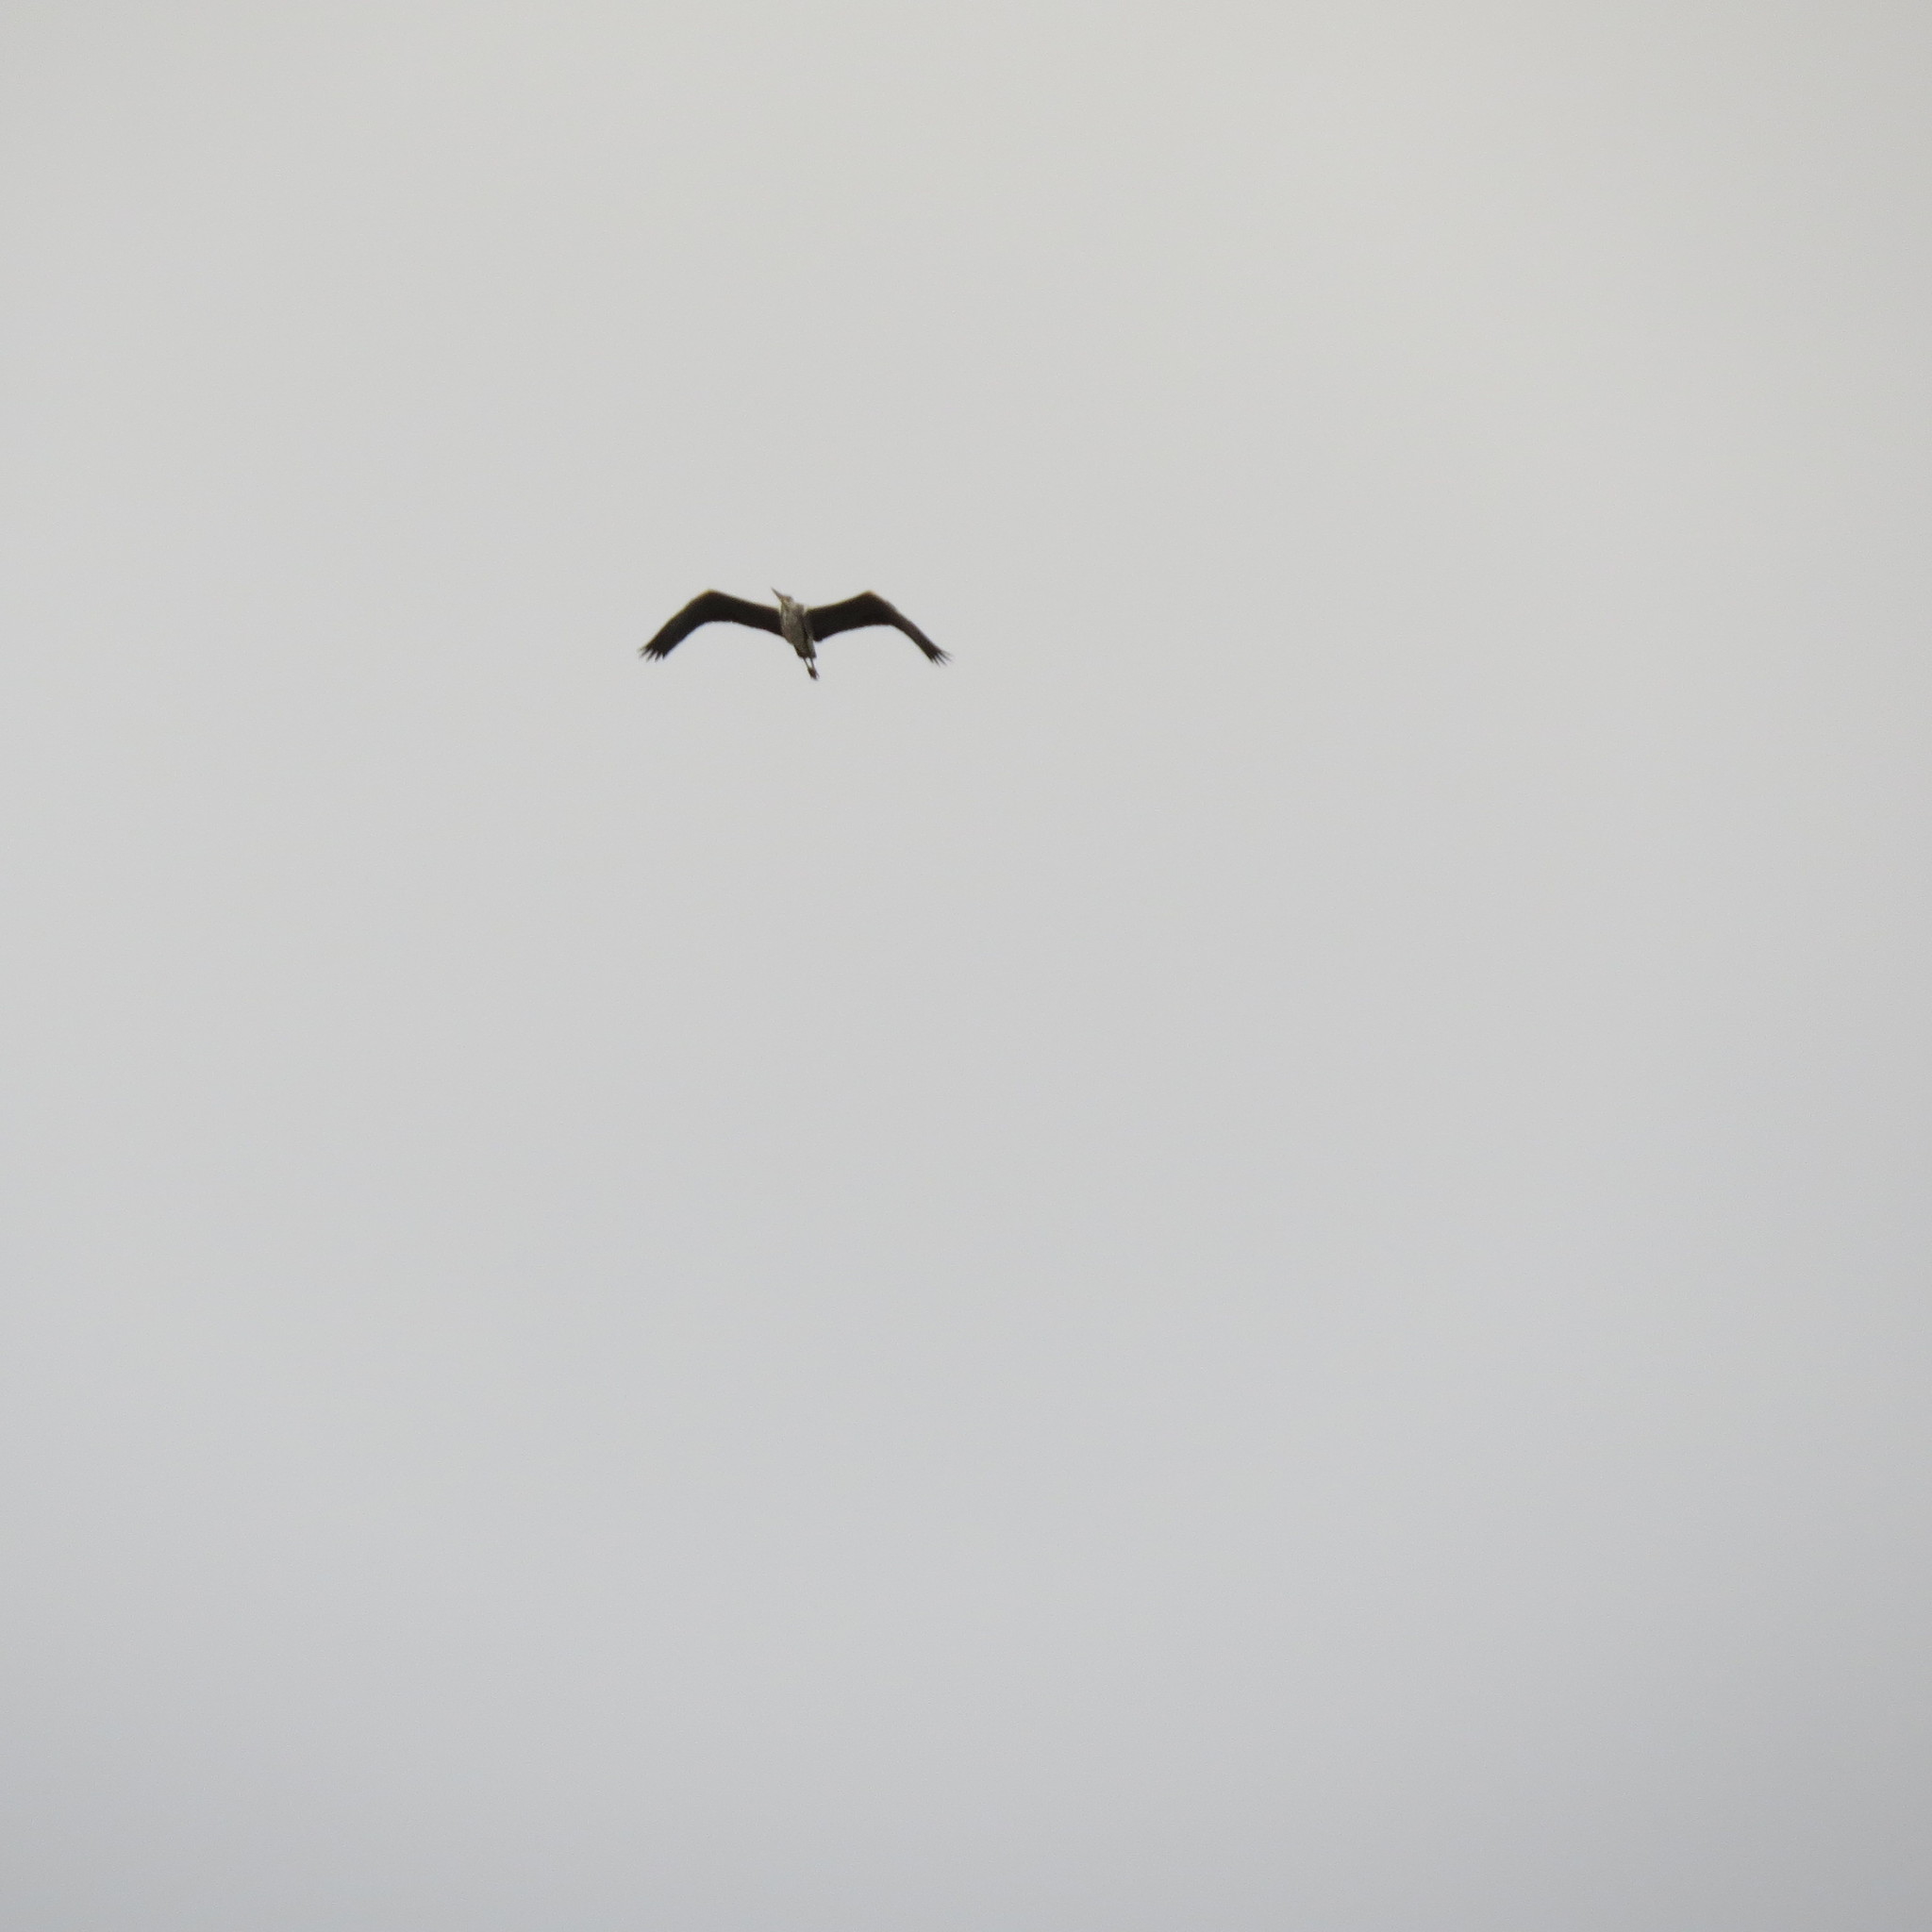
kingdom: Animalia
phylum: Chordata
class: Aves
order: Pelecaniformes
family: Ardeidae
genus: Ardea
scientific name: Ardea cinerea
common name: Grey heron
